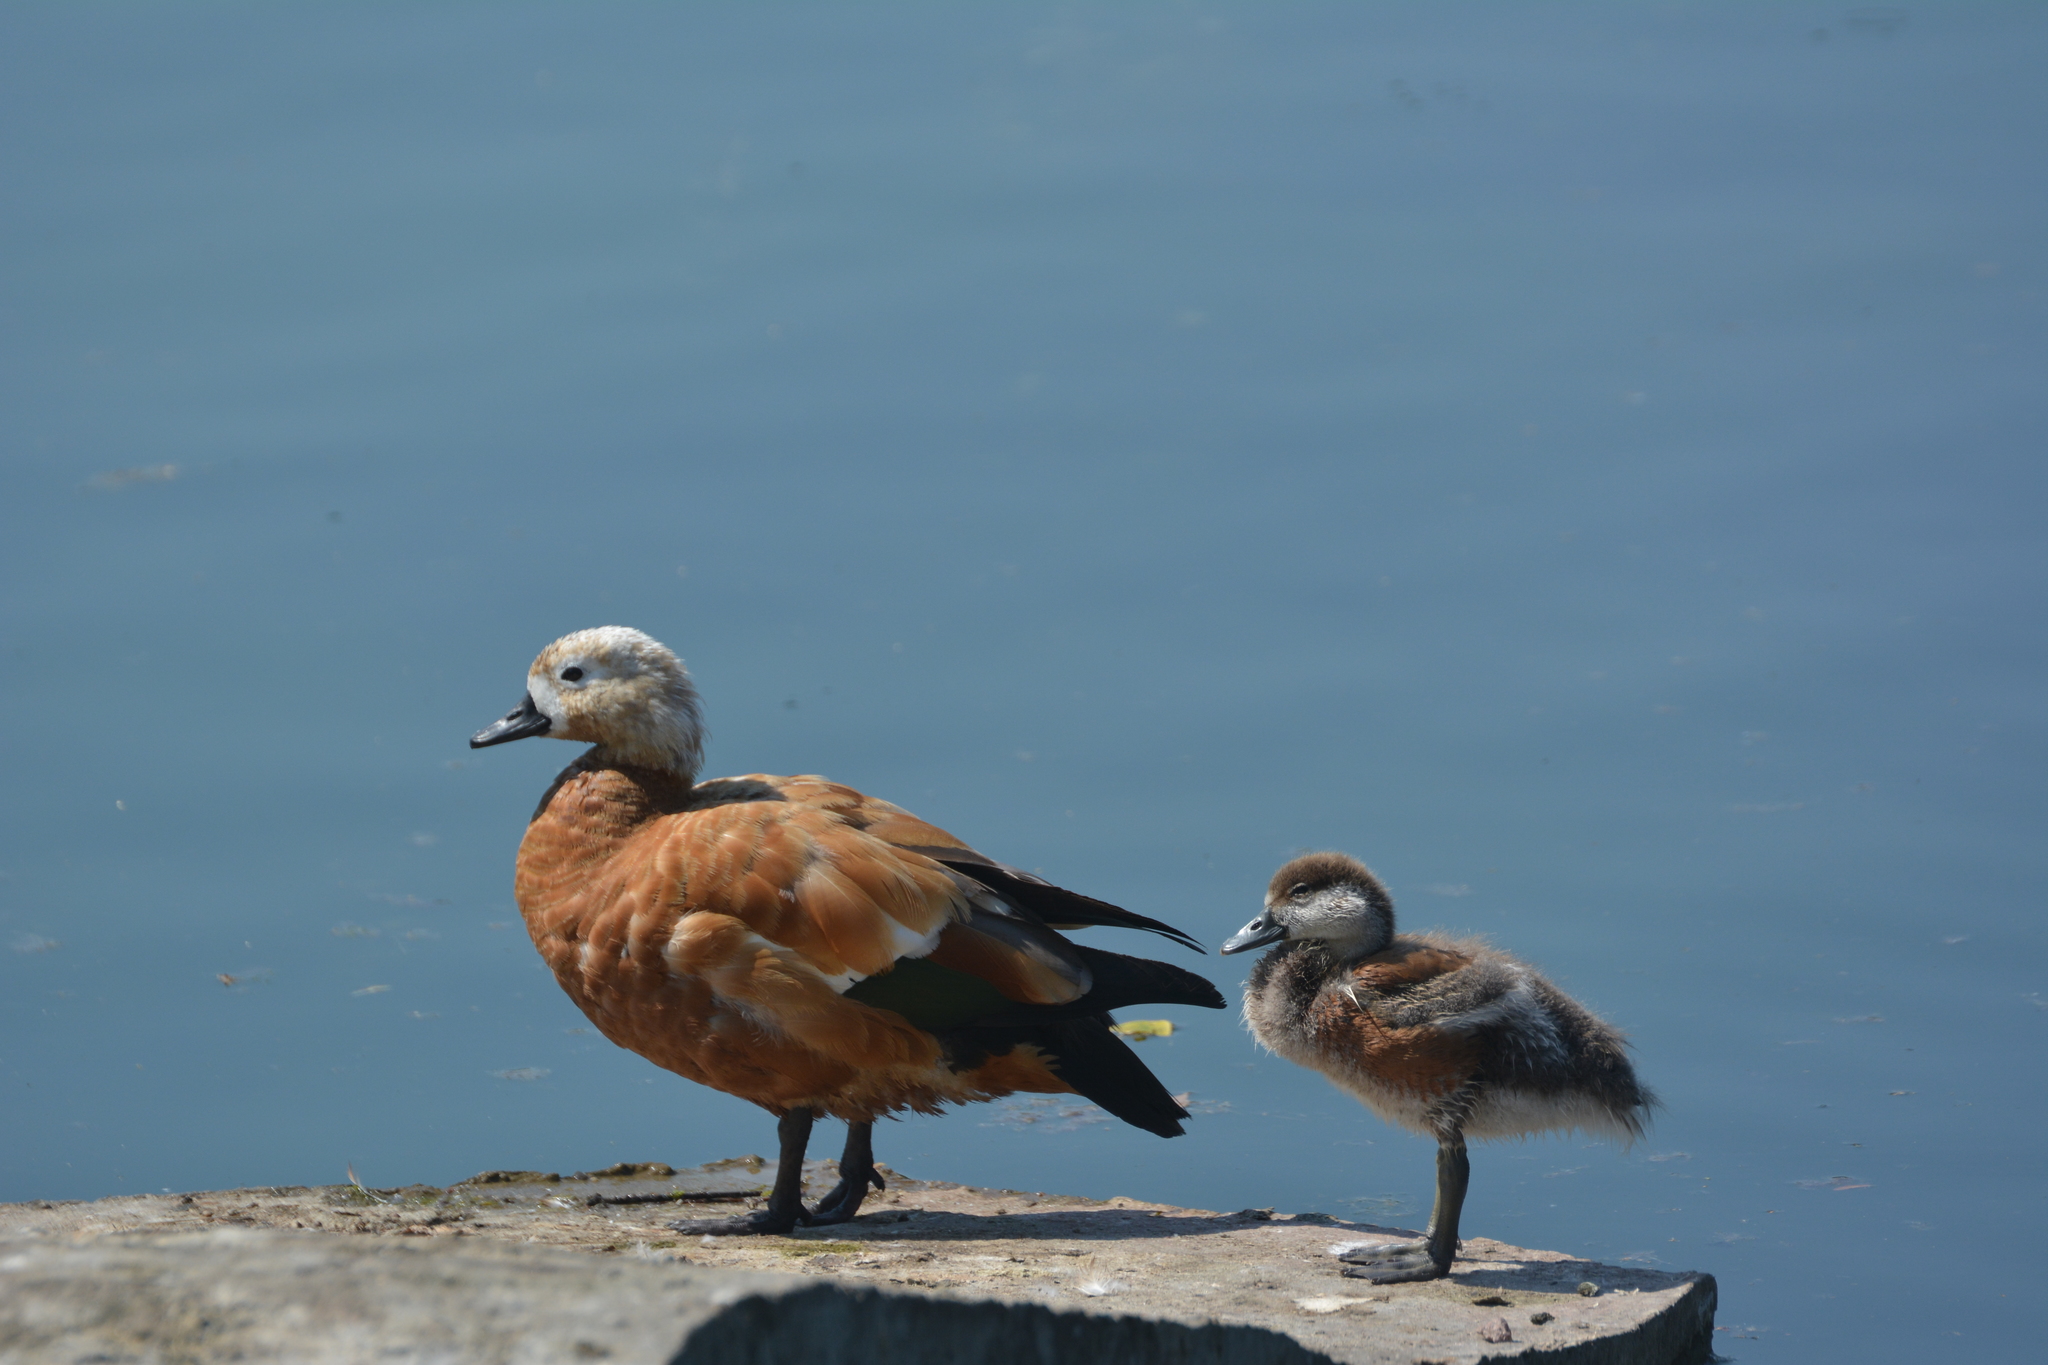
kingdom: Animalia
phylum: Chordata
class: Aves
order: Anseriformes
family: Anatidae
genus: Tadorna
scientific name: Tadorna ferruginea
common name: Ruddy shelduck
